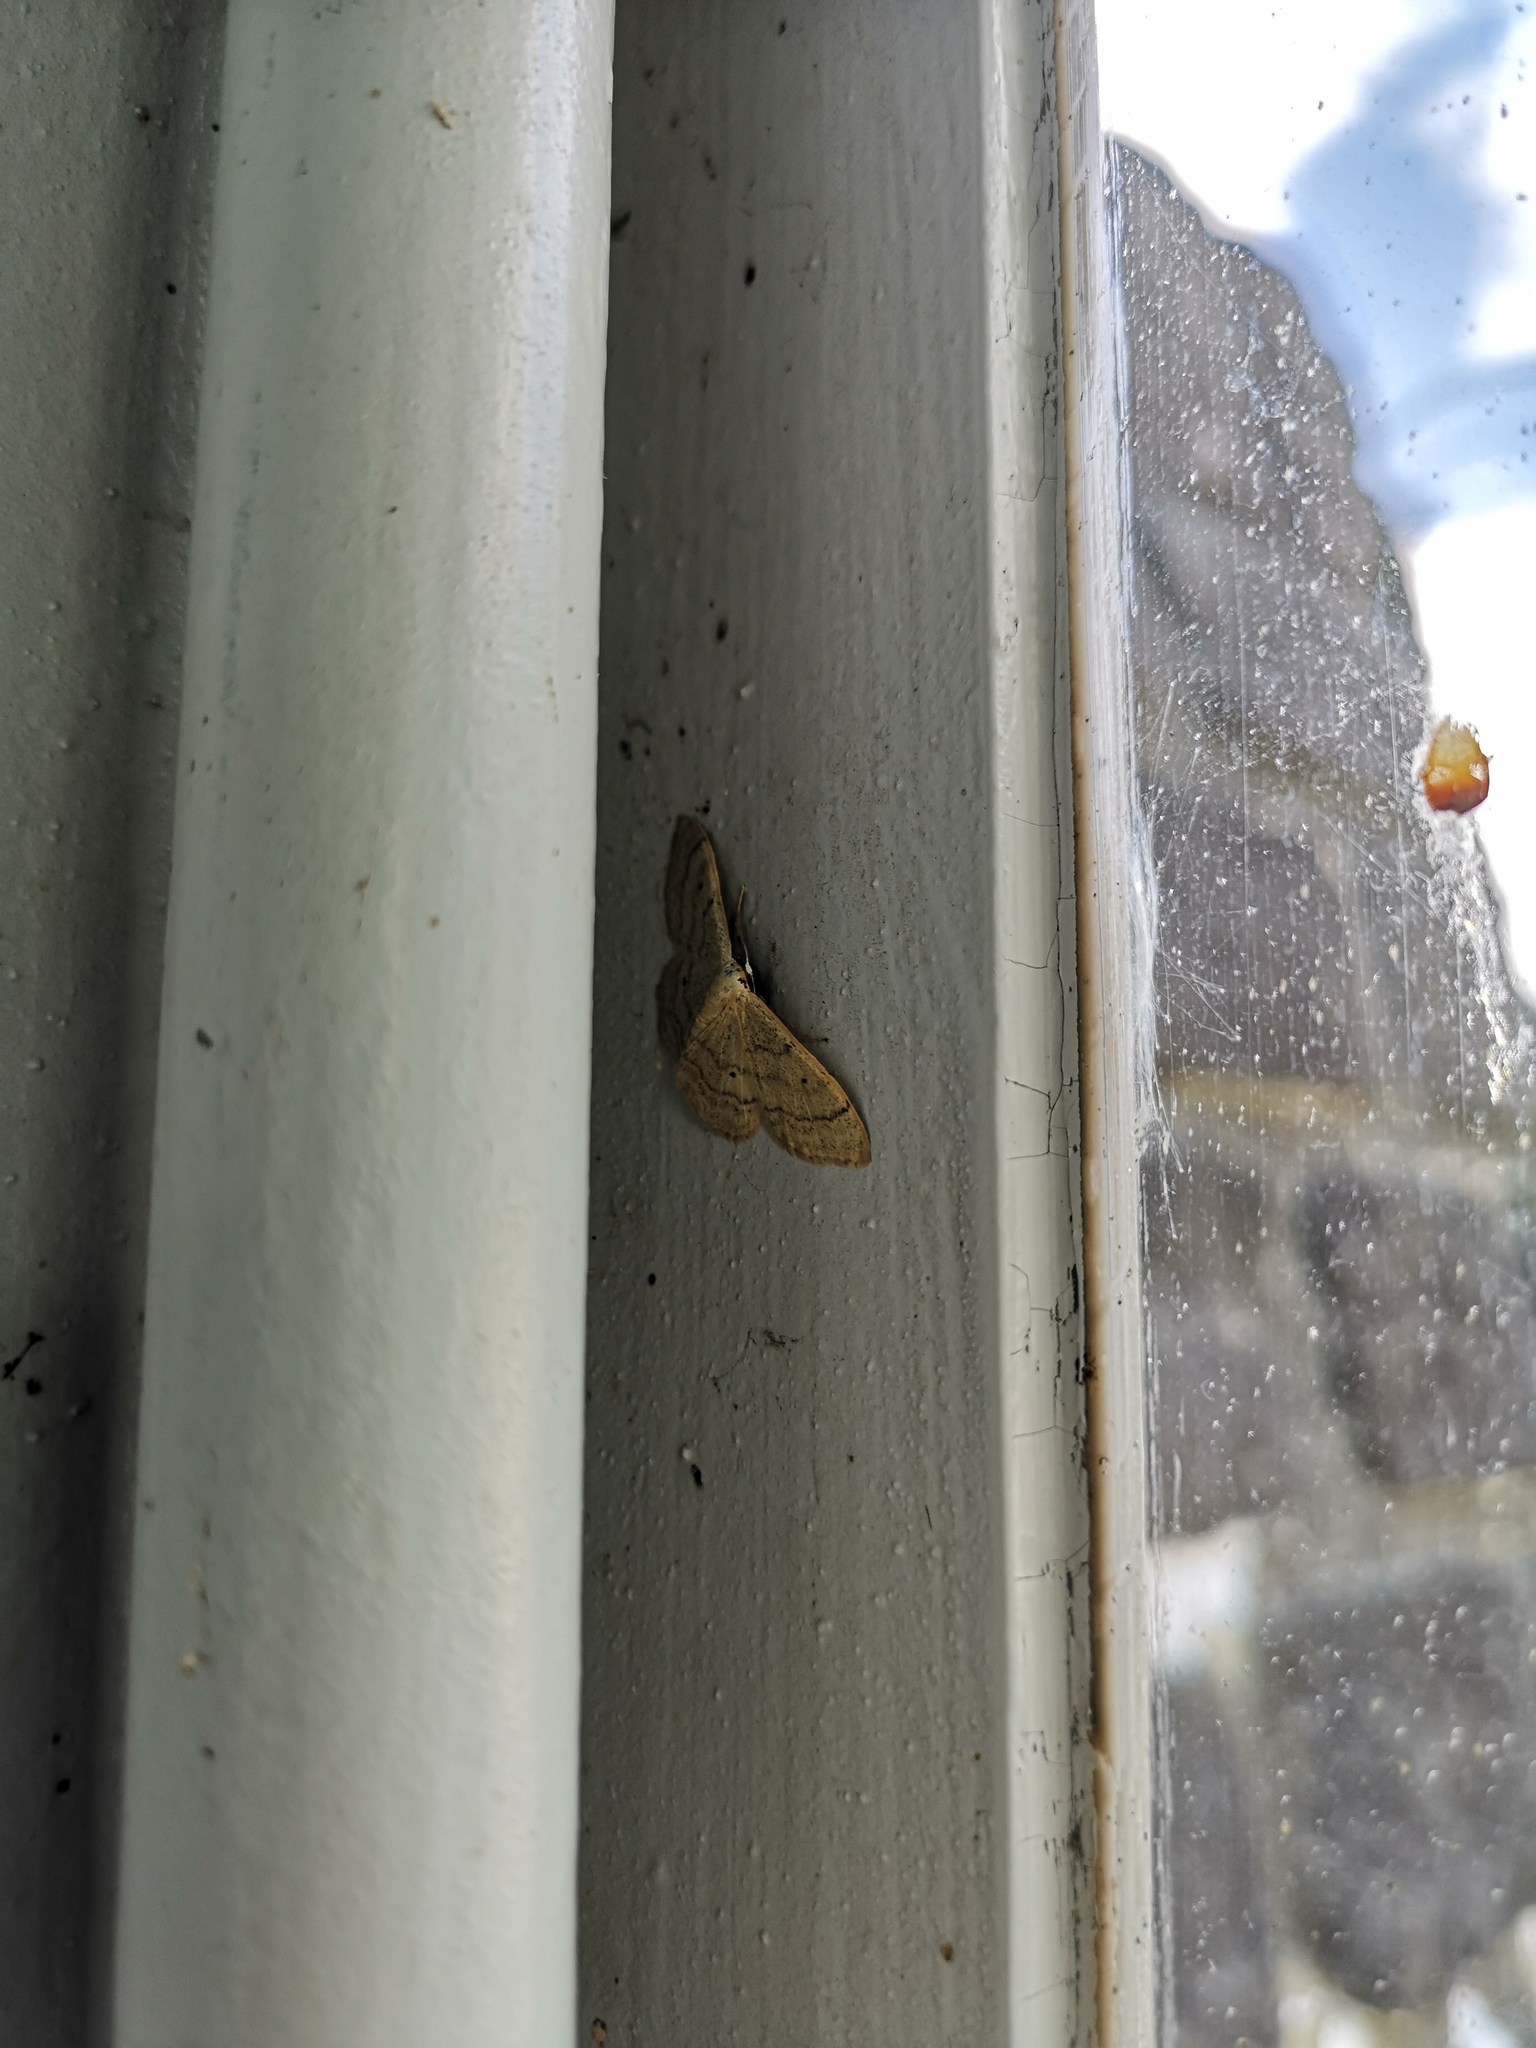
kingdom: Animalia
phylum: Arthropoda
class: Insecta
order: Lepidoptera
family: Geometridae
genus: Idaea
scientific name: Idaea aversata
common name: Riband wave
